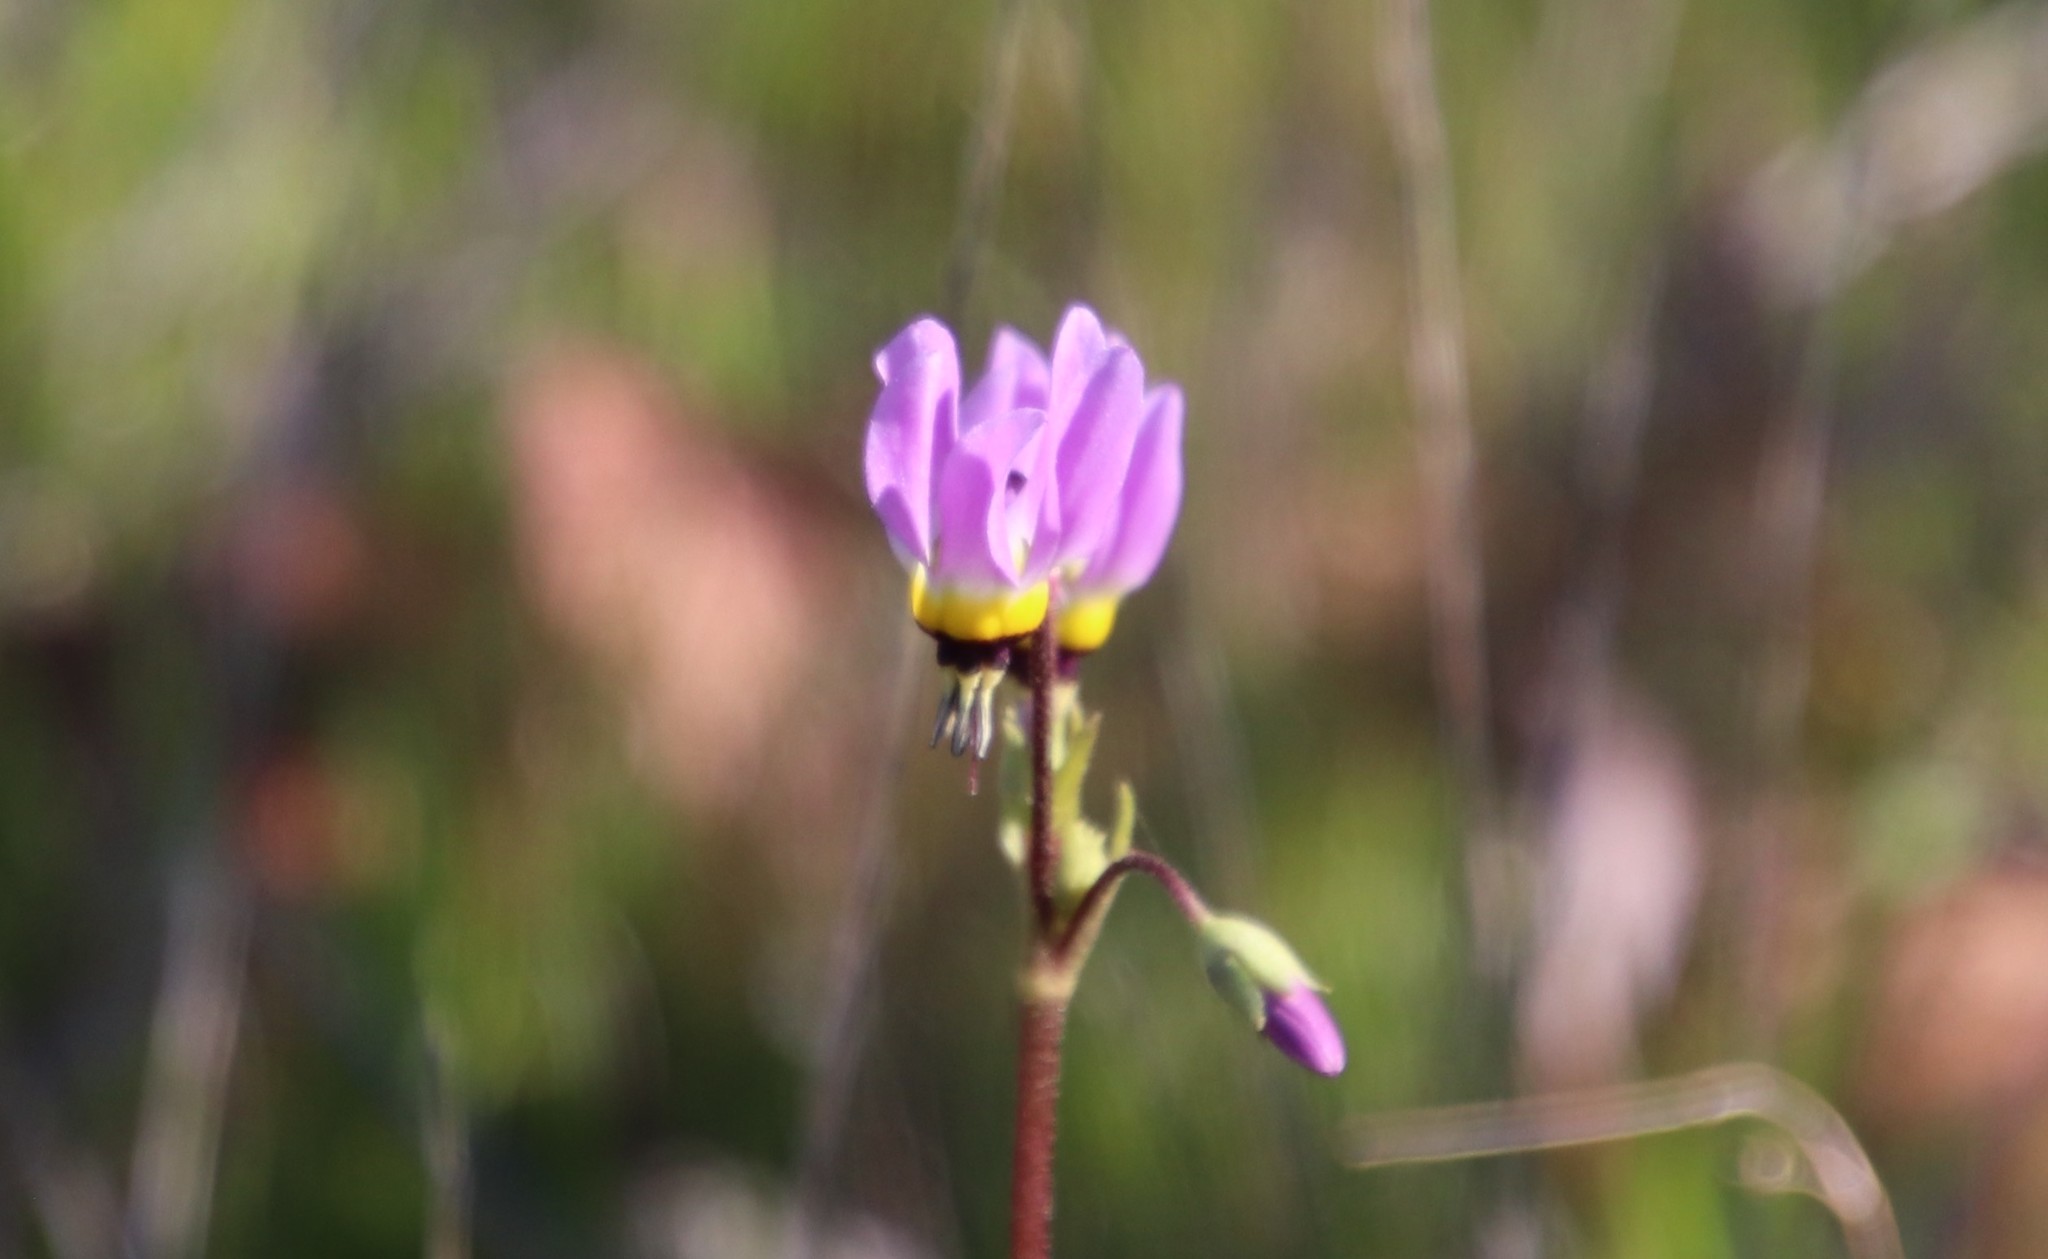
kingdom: Plantae
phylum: Tracheophyta
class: Magnoliopsida
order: Ericales
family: Primulaceae
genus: Dodecatheon
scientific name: Dodecatheon clevelandii
